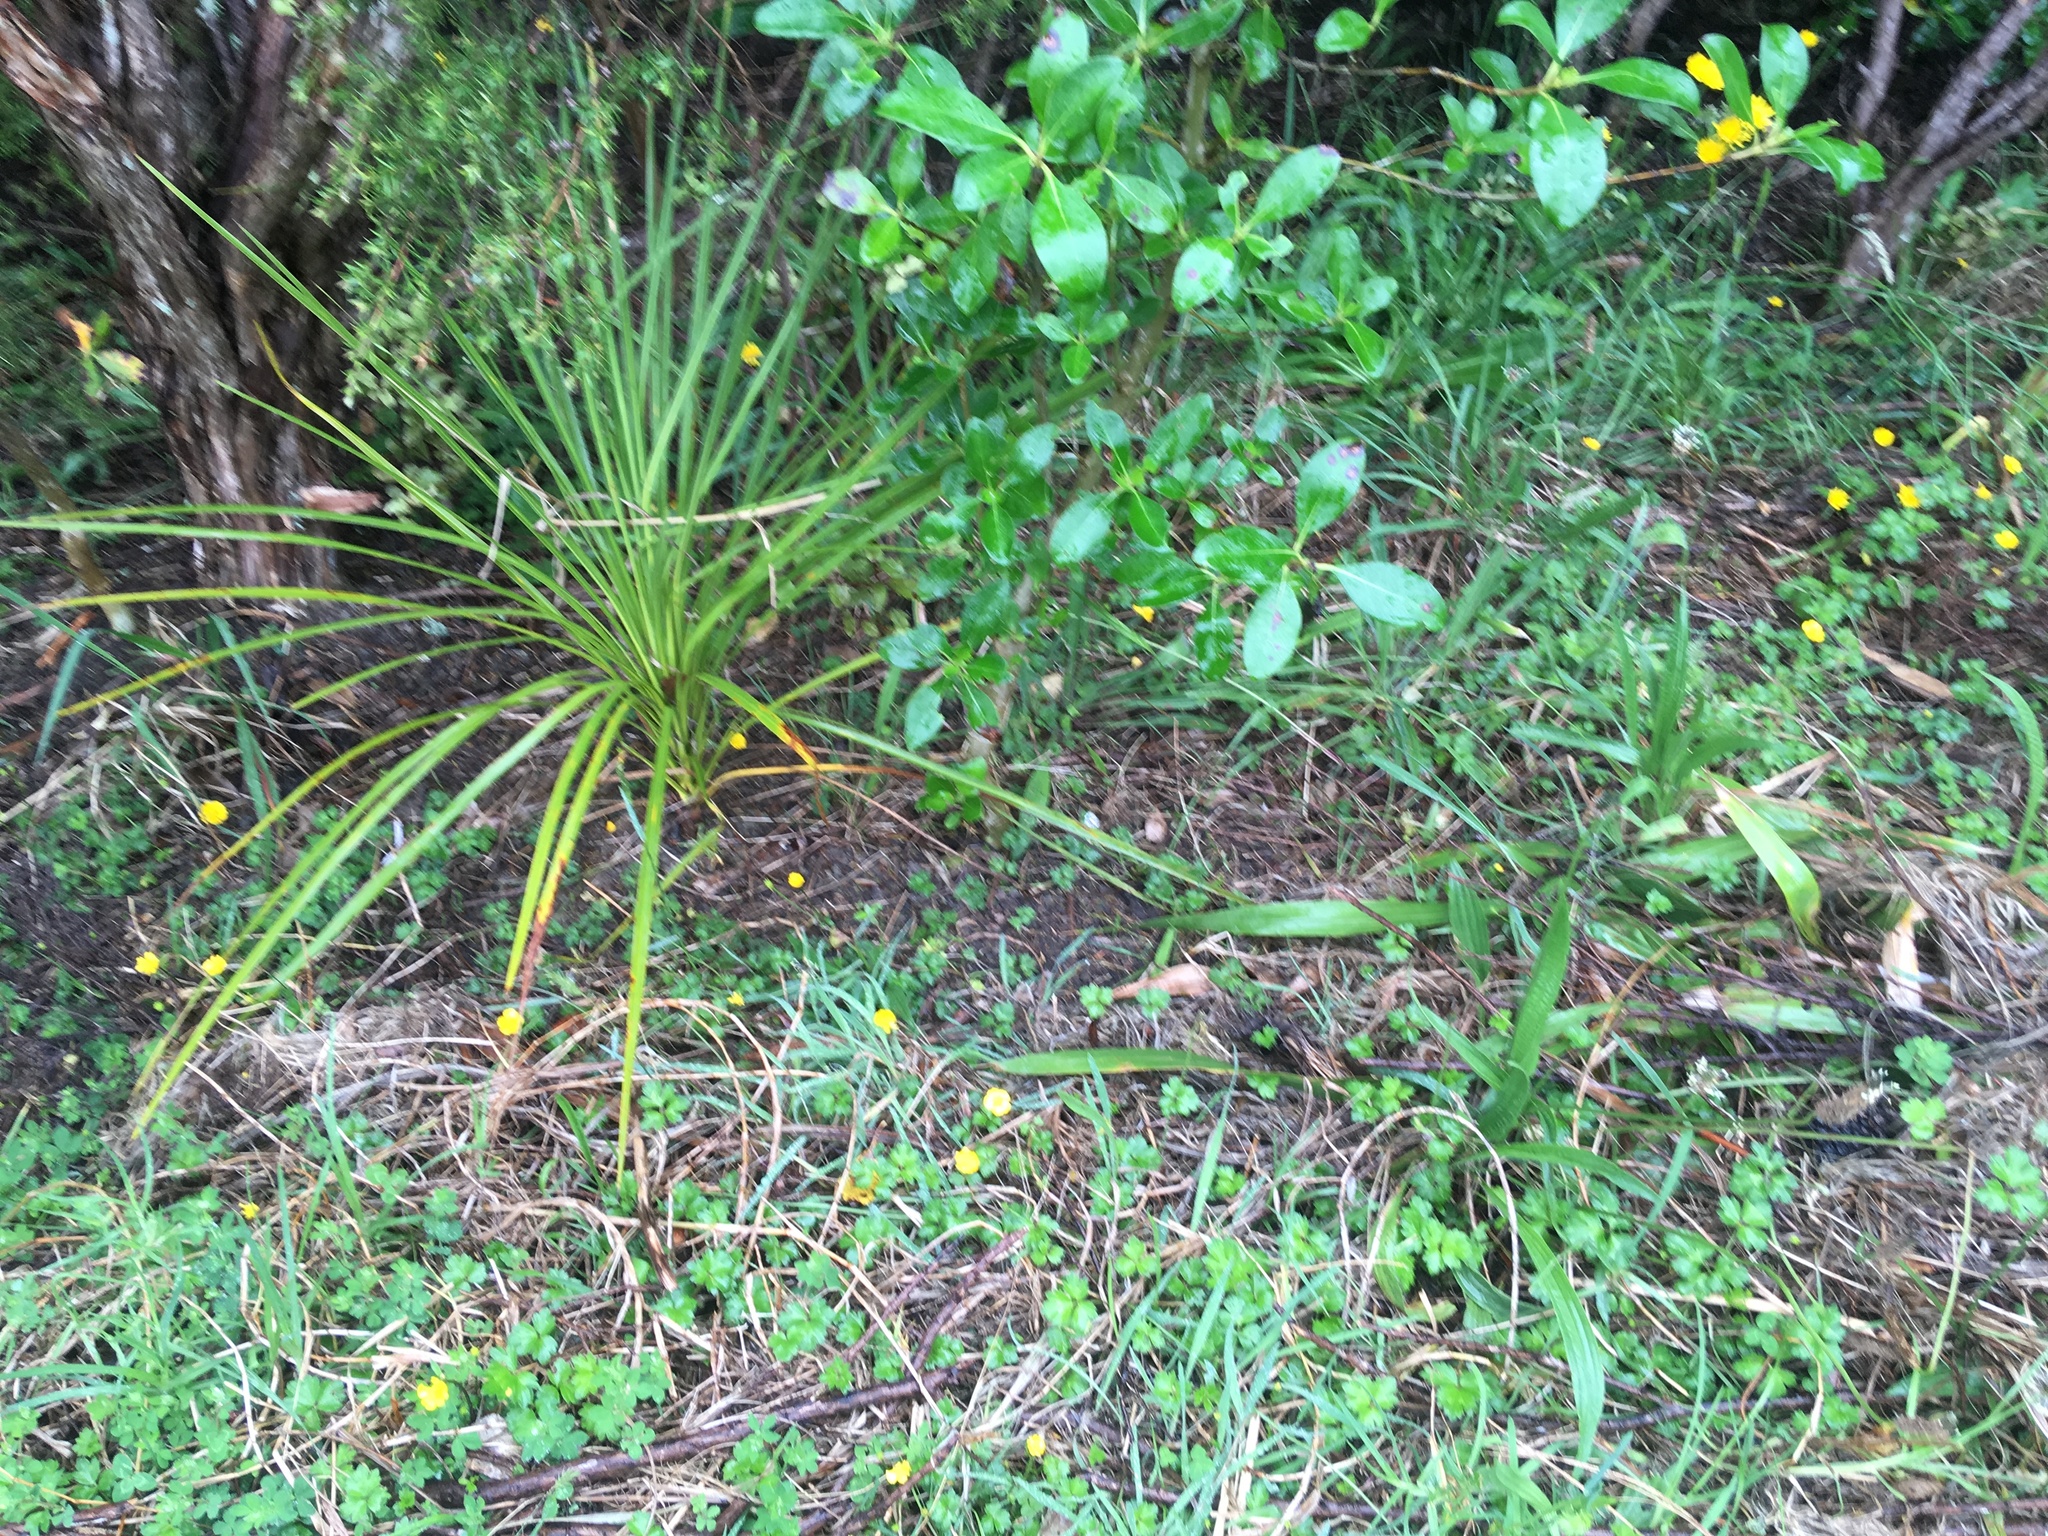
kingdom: Plantae
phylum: Tracheophyta
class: Liliopsida
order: Asparagales
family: Asparagaceae
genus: Cordyline
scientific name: Cordyline australis
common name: Cabbage-palm
